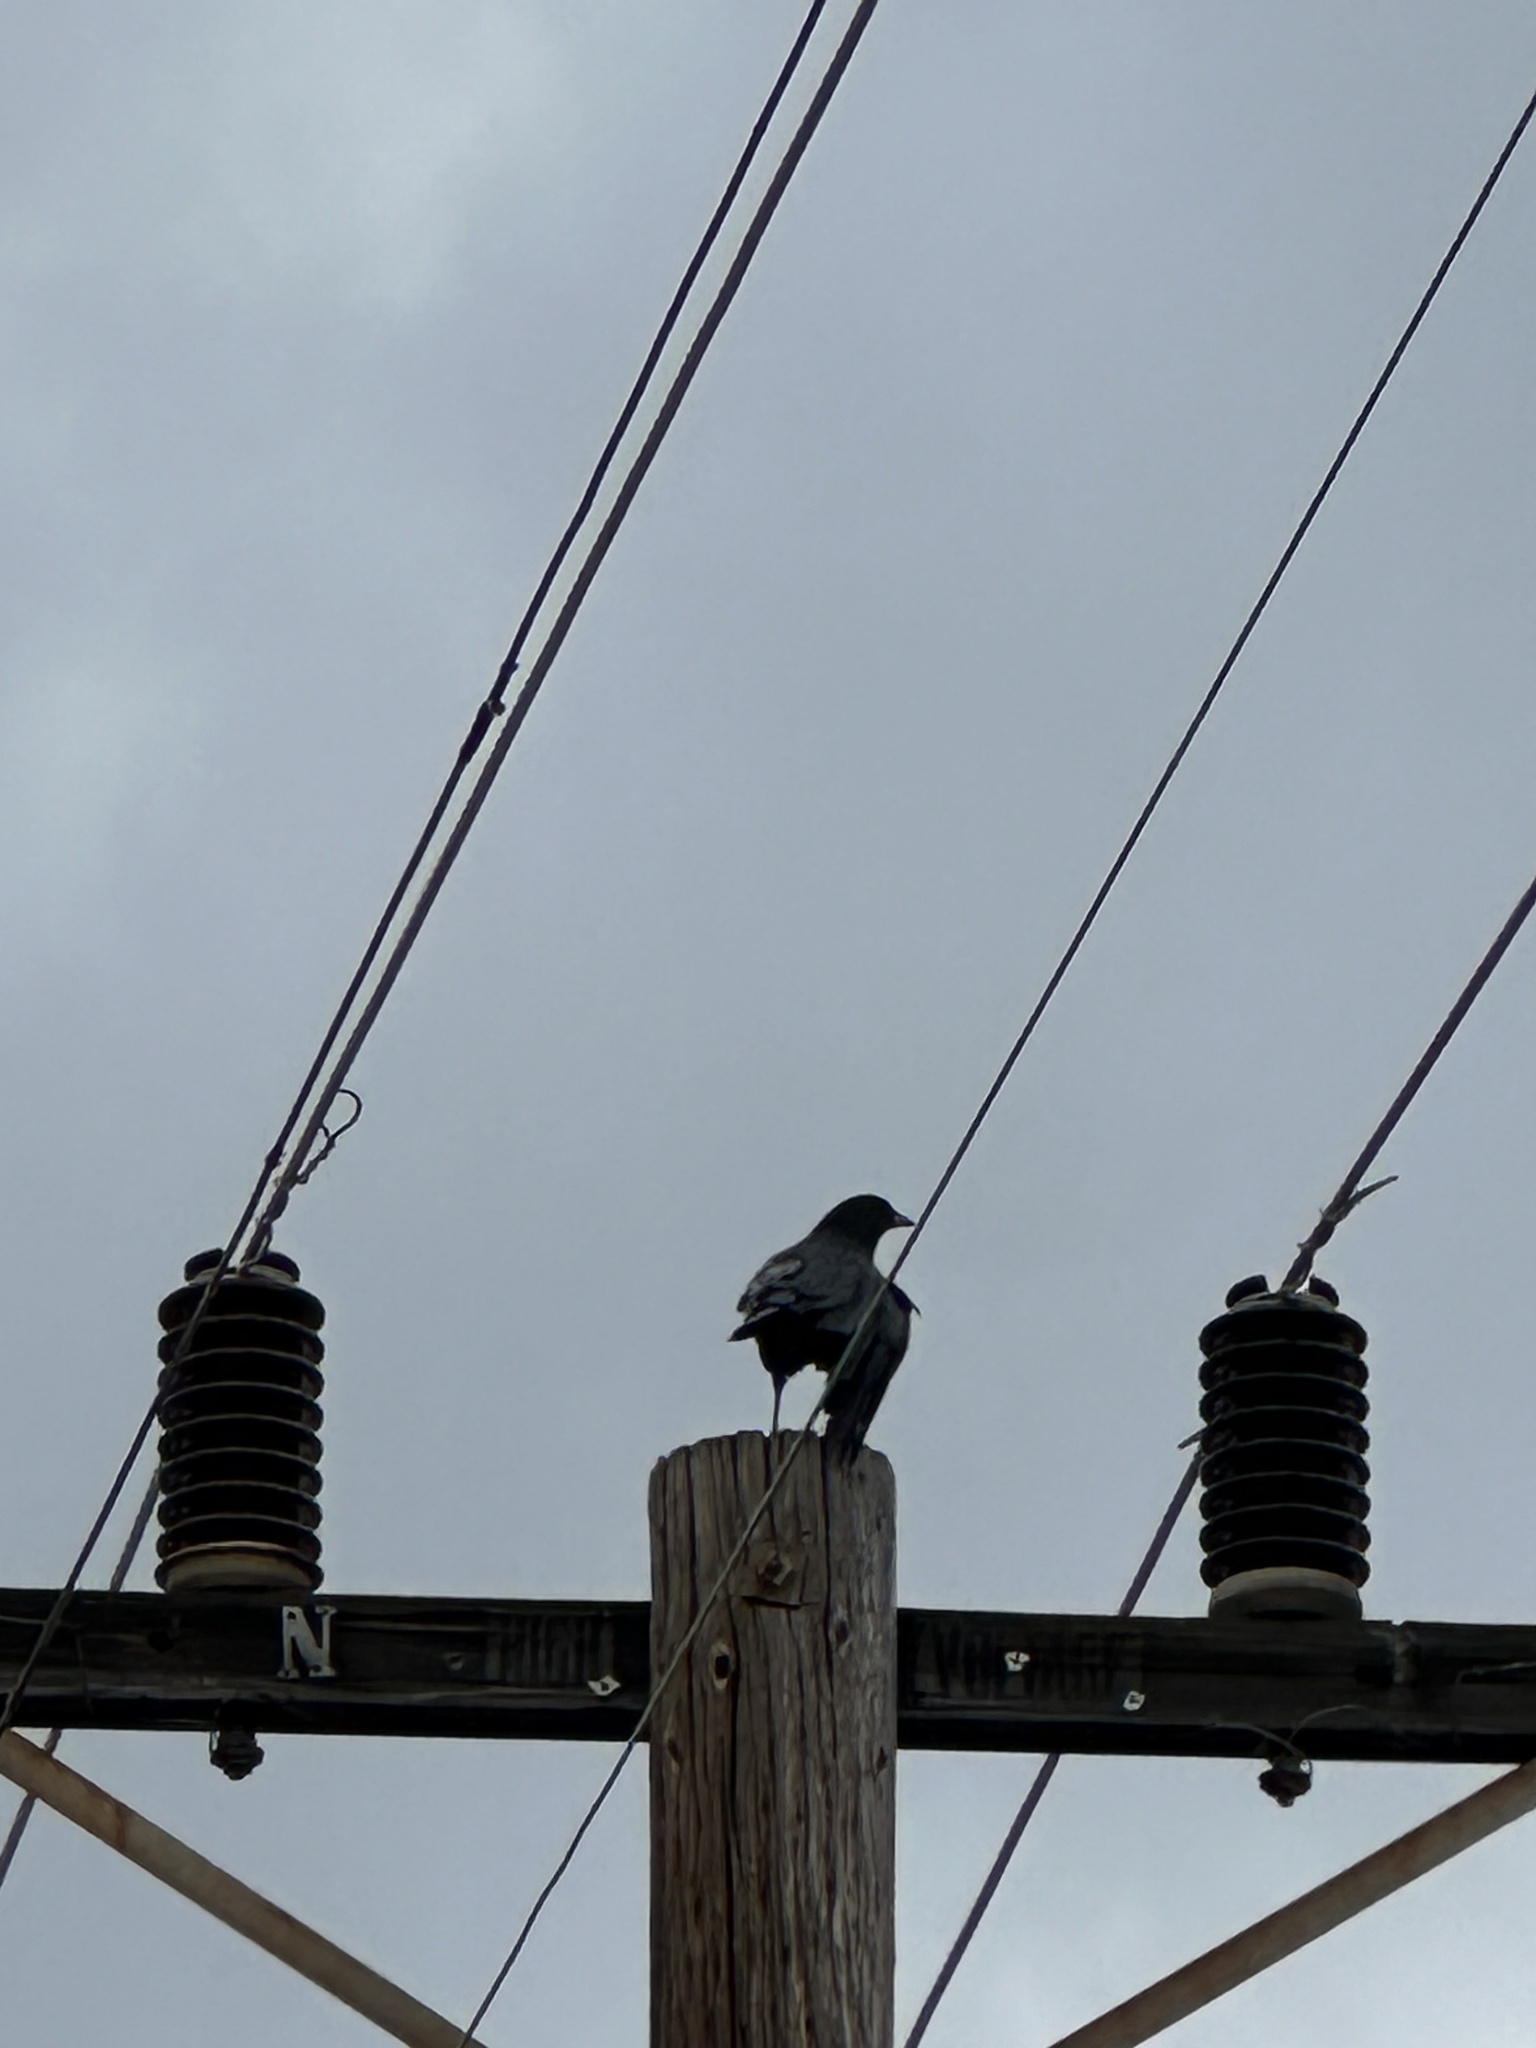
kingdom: Animalia
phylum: Chordata
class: Aves
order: Passeriformes
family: Corvidae
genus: Corvus
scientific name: Corvus corax
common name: Common raven
